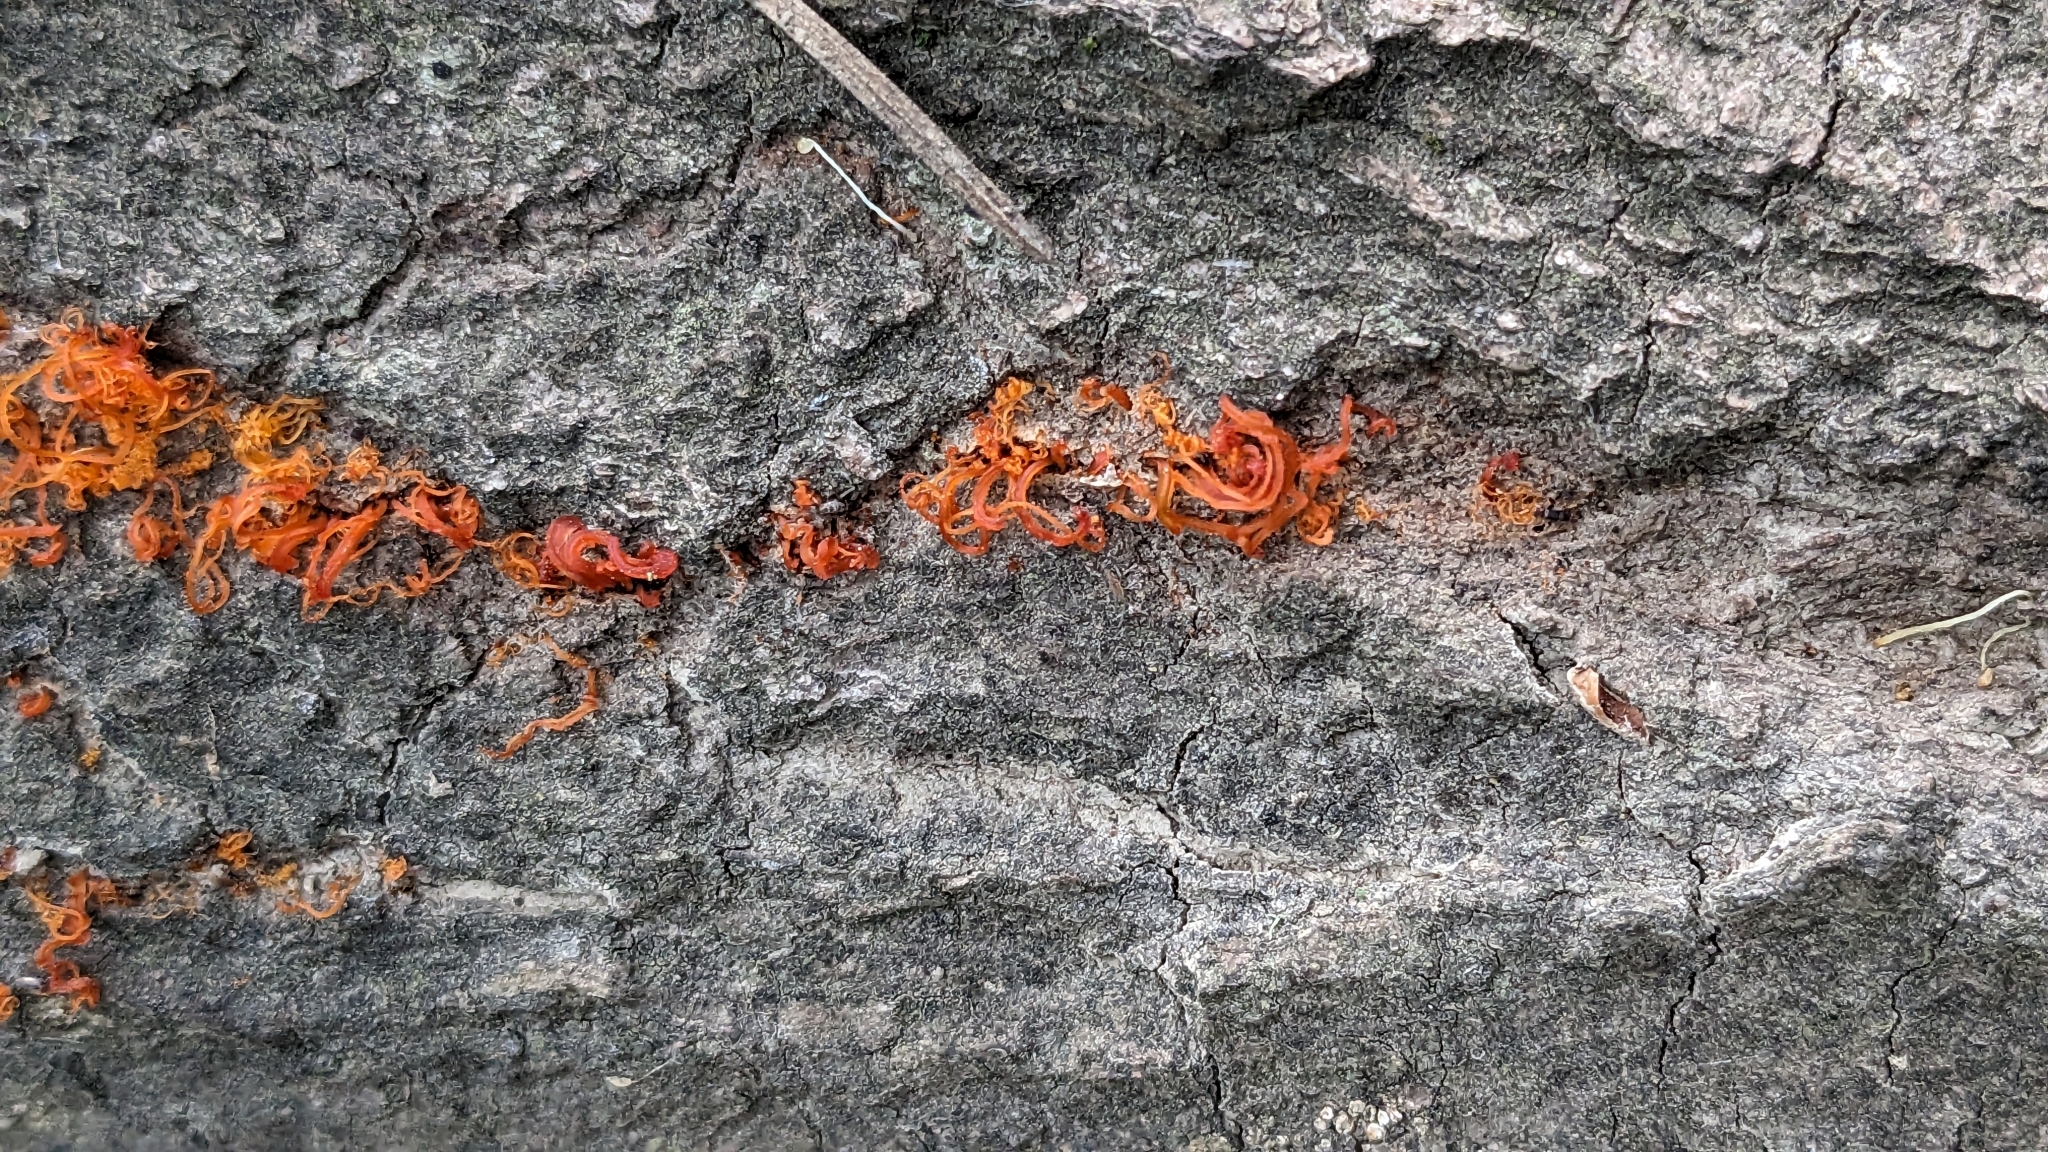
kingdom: Fungi
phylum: Ascomycota
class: Sordariomycetes
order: Diaporthales
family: Valsaceae
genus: Cytospora
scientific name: Cytospora chrysosperma
